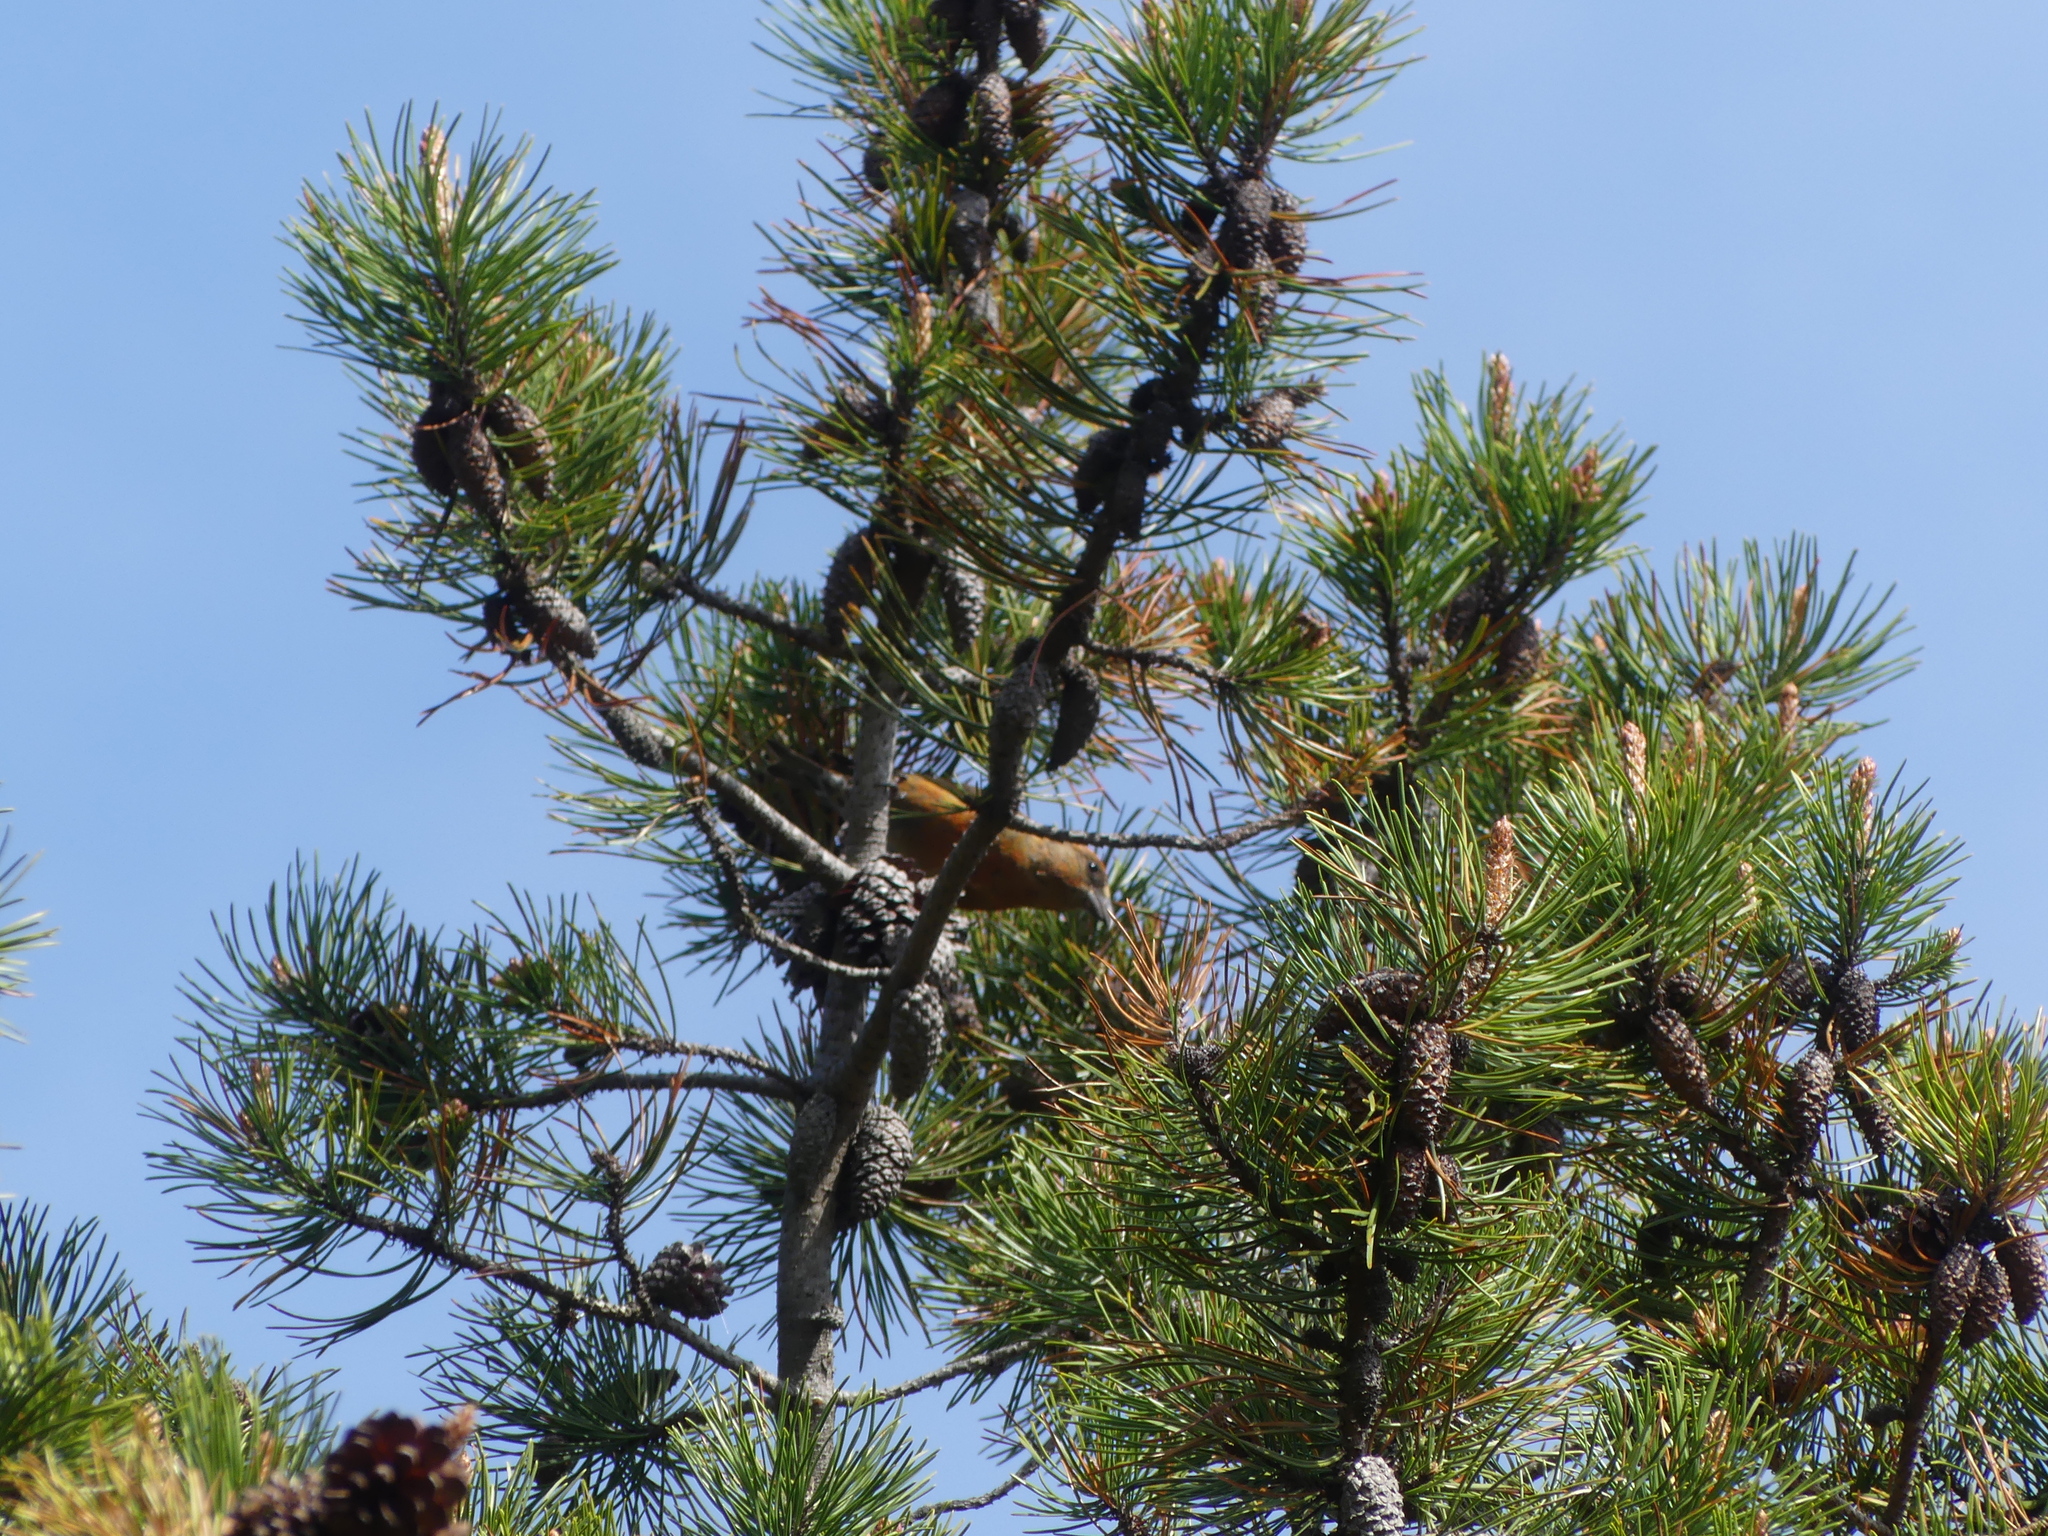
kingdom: Animalia
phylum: Chordata
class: Aves
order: Passeriformes
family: Fringillidae
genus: Loxia
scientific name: Loxia curvirostra
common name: Red crossbill
